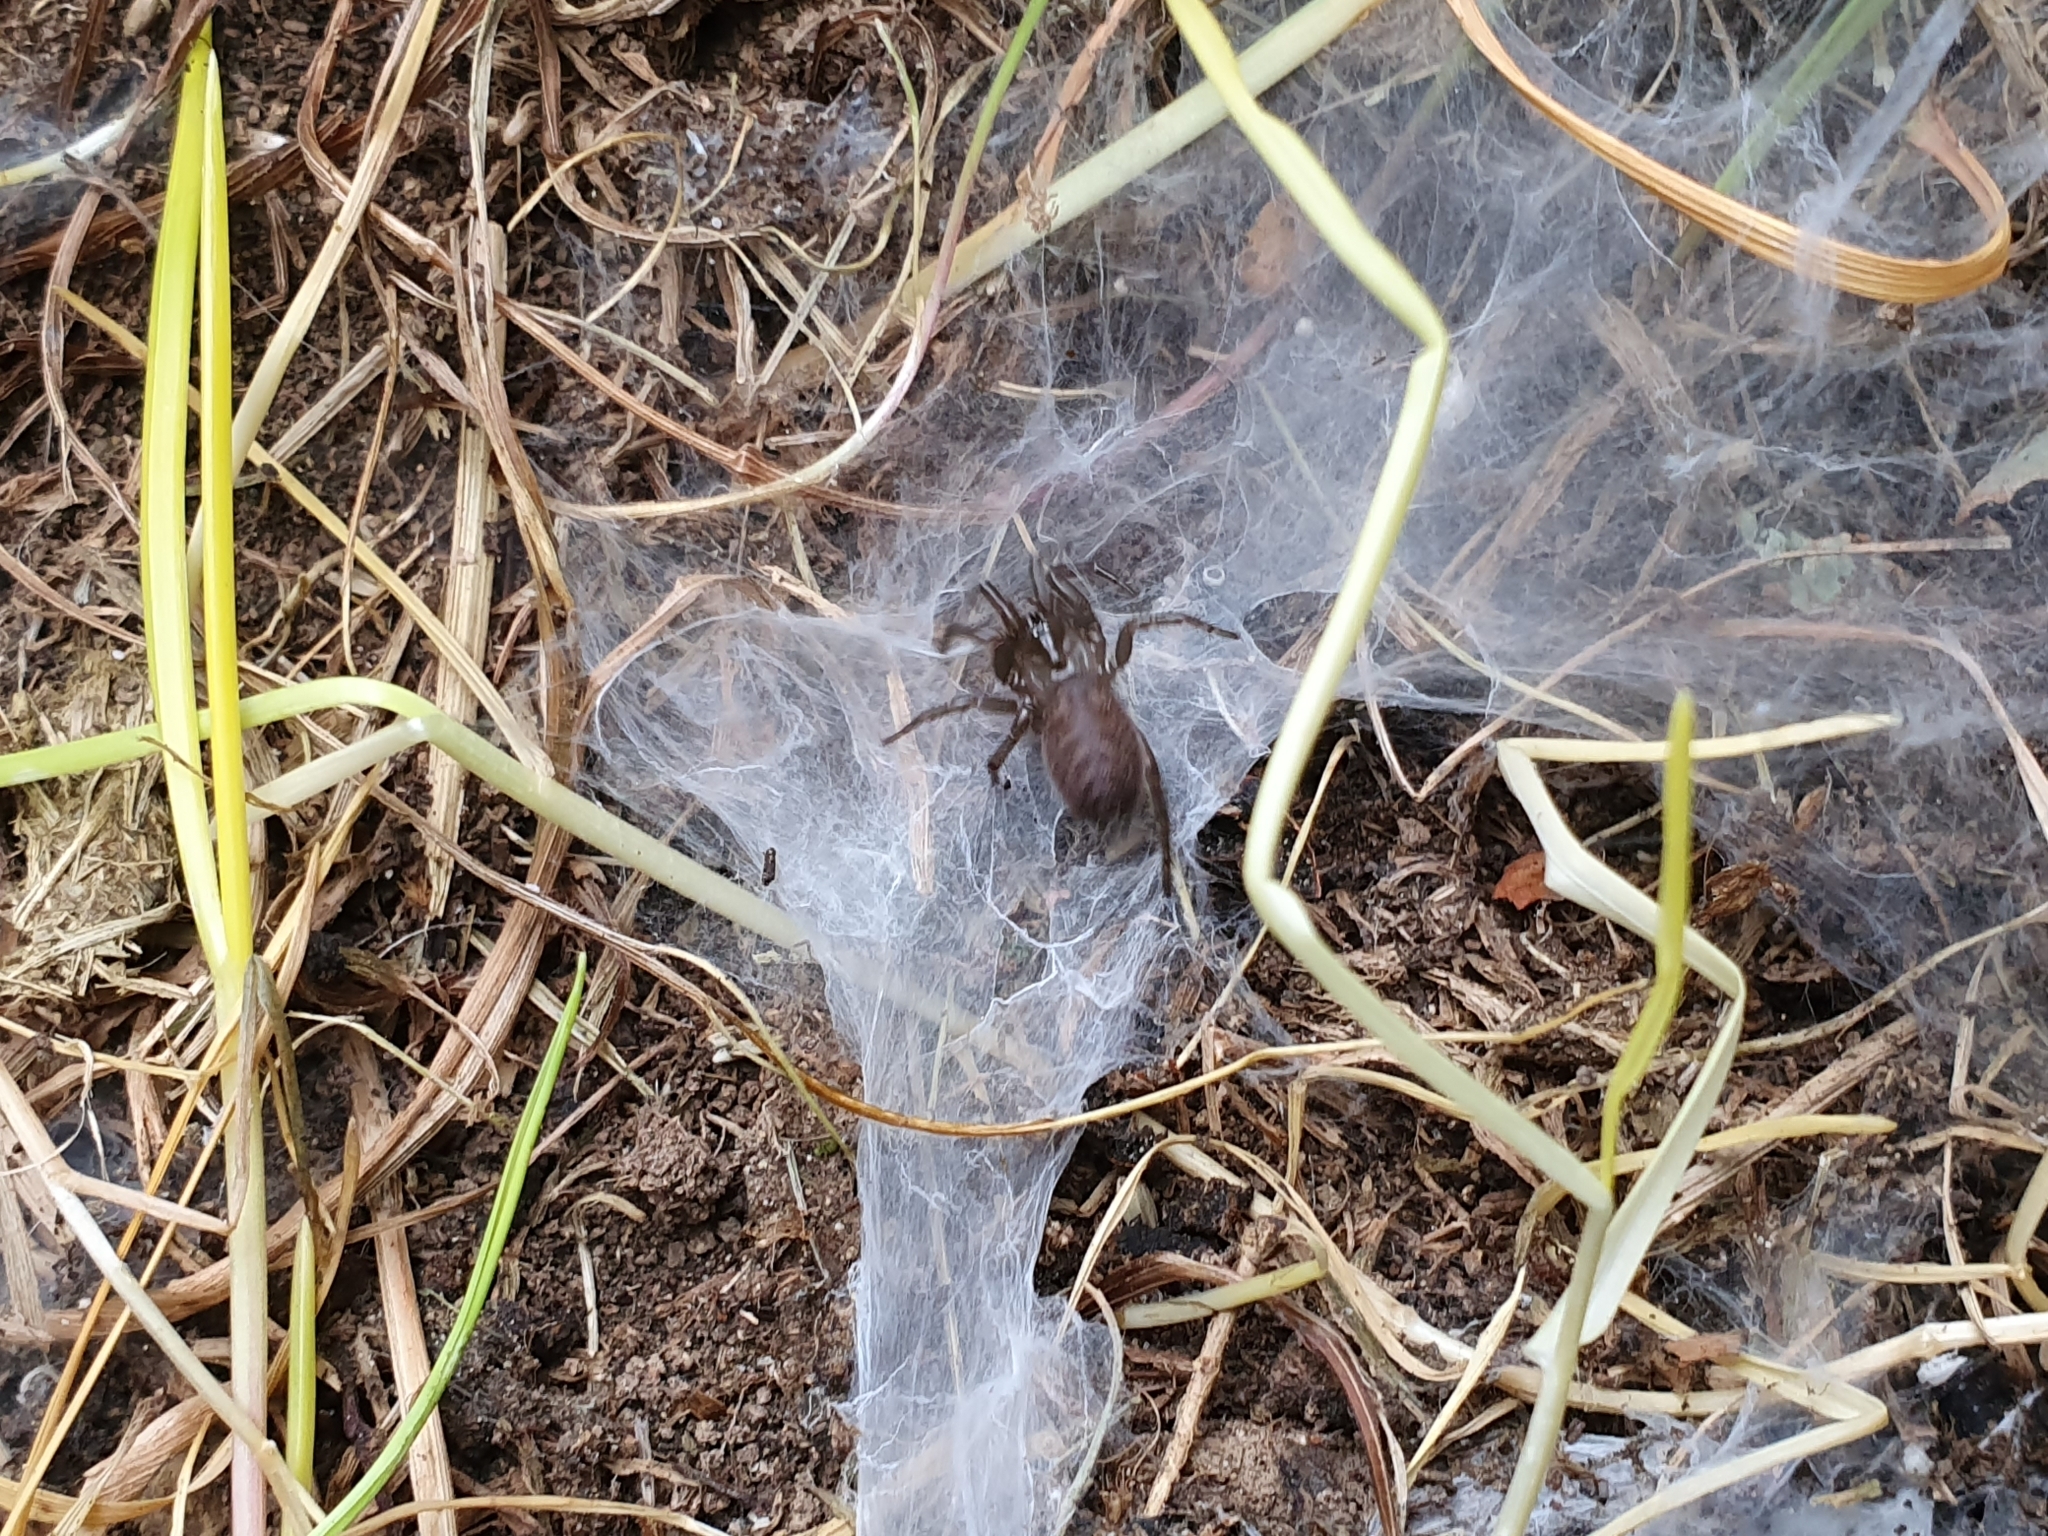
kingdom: Animalia
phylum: Arthropoda
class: Arachnida
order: Araneae
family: Porrhothelidae
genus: Porrhothele
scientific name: Porrhothele antipodiana
